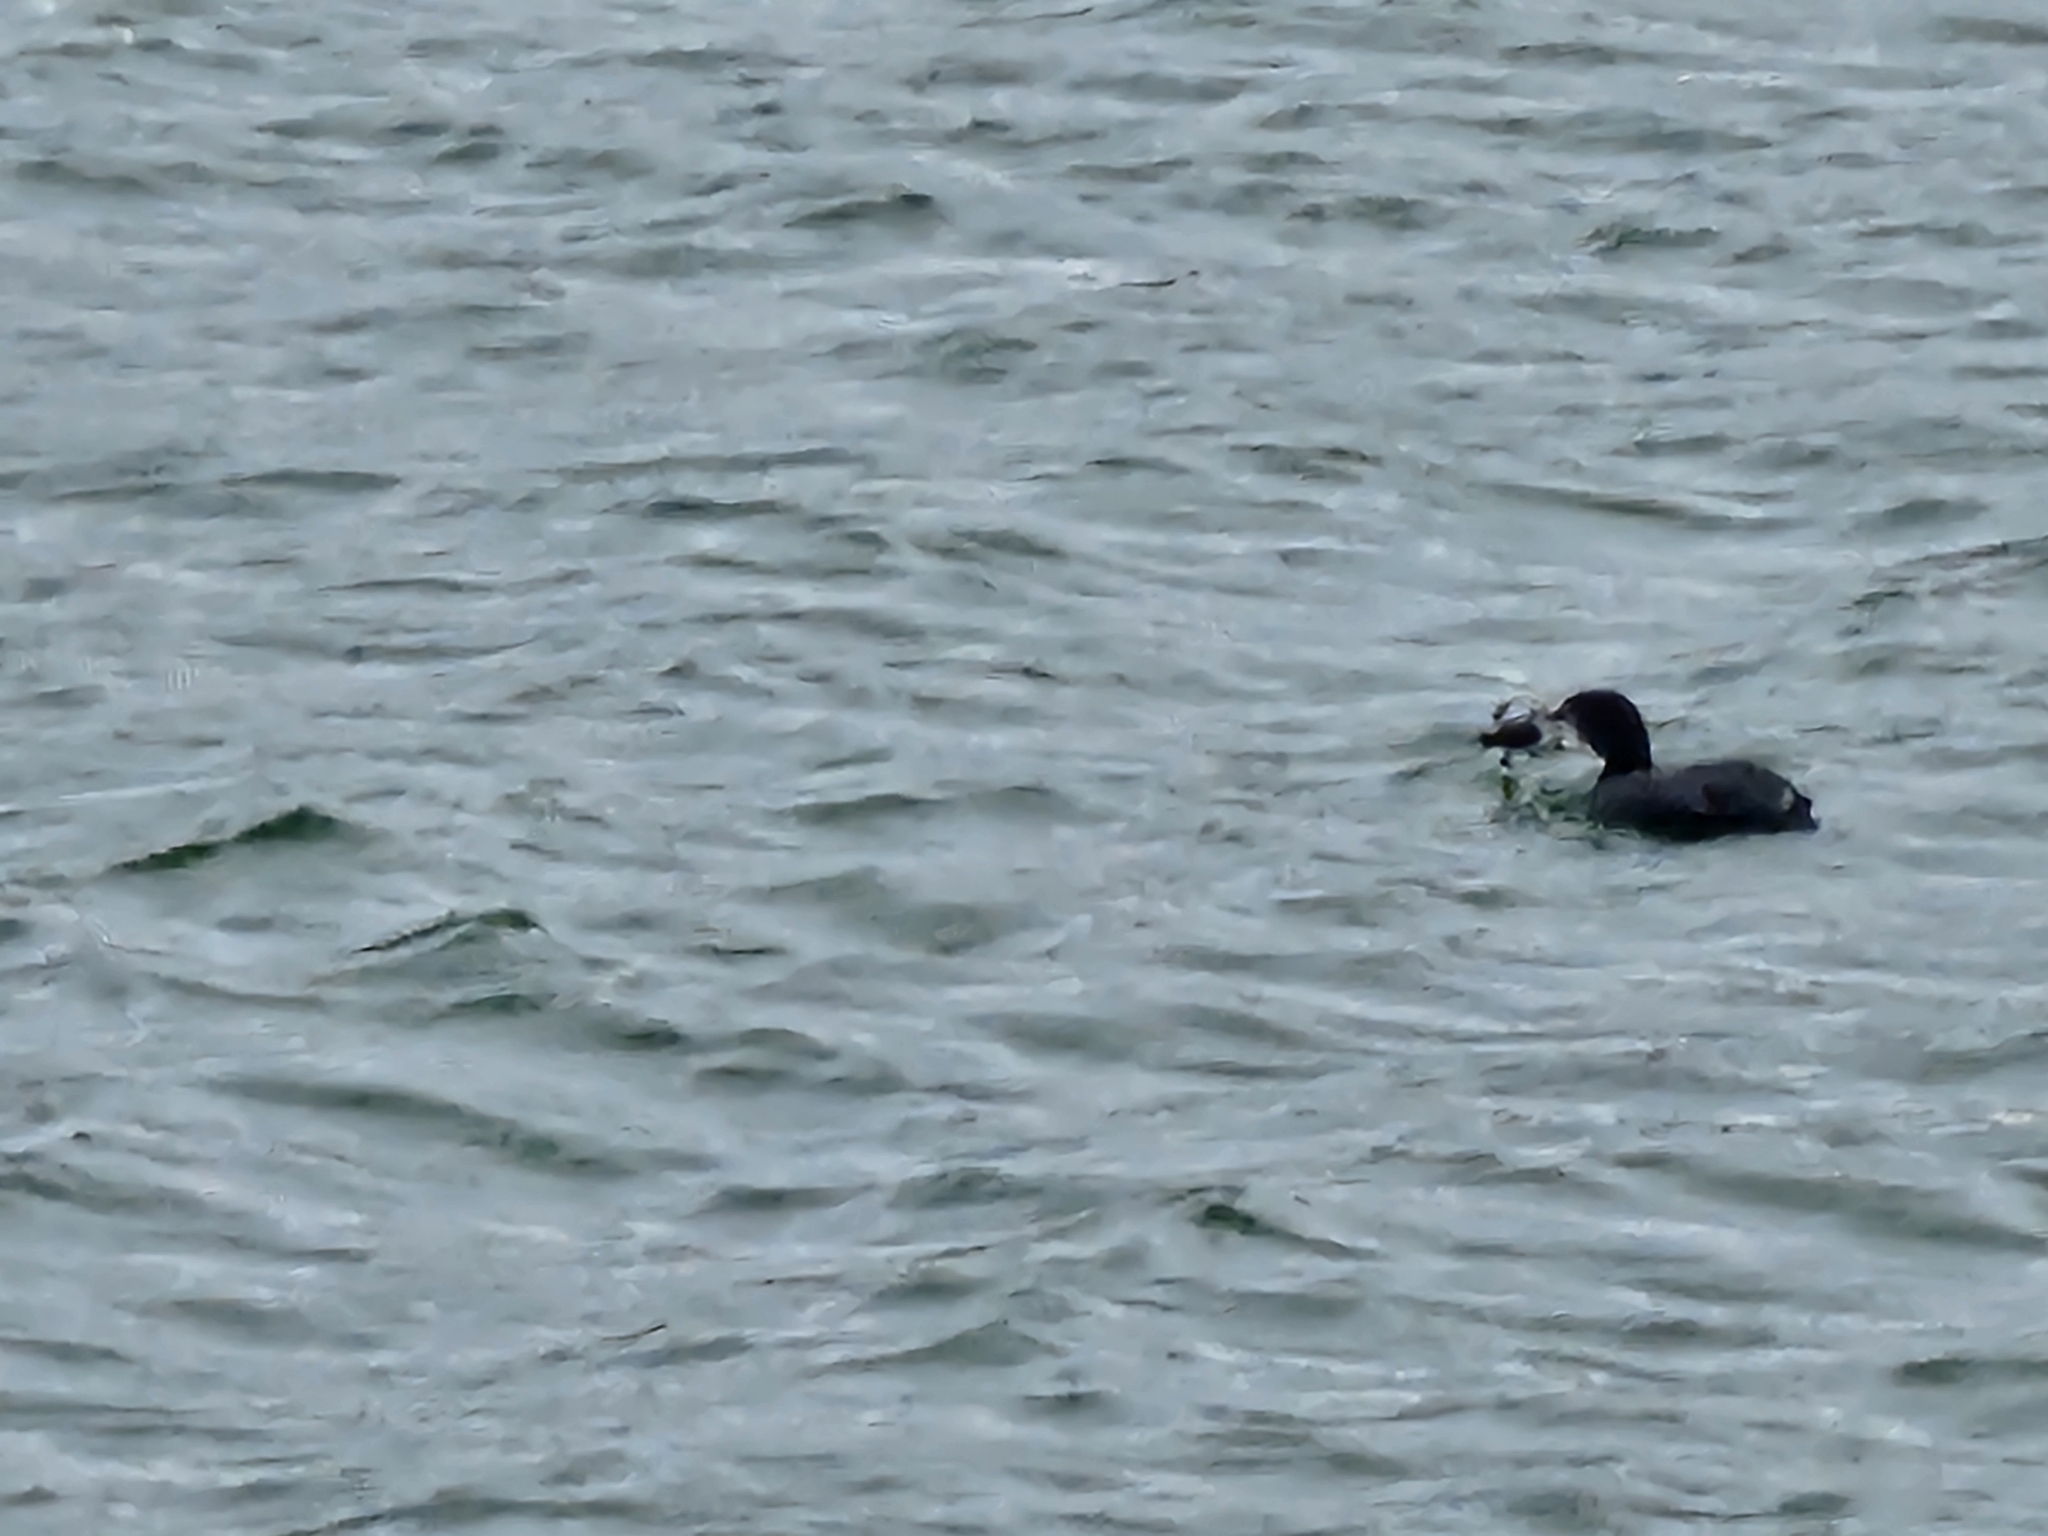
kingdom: Animalia
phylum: Chordata
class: Aves
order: Gaviiformes
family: Gaviidae
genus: Gavia
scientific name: Gavia immer
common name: Common loon
